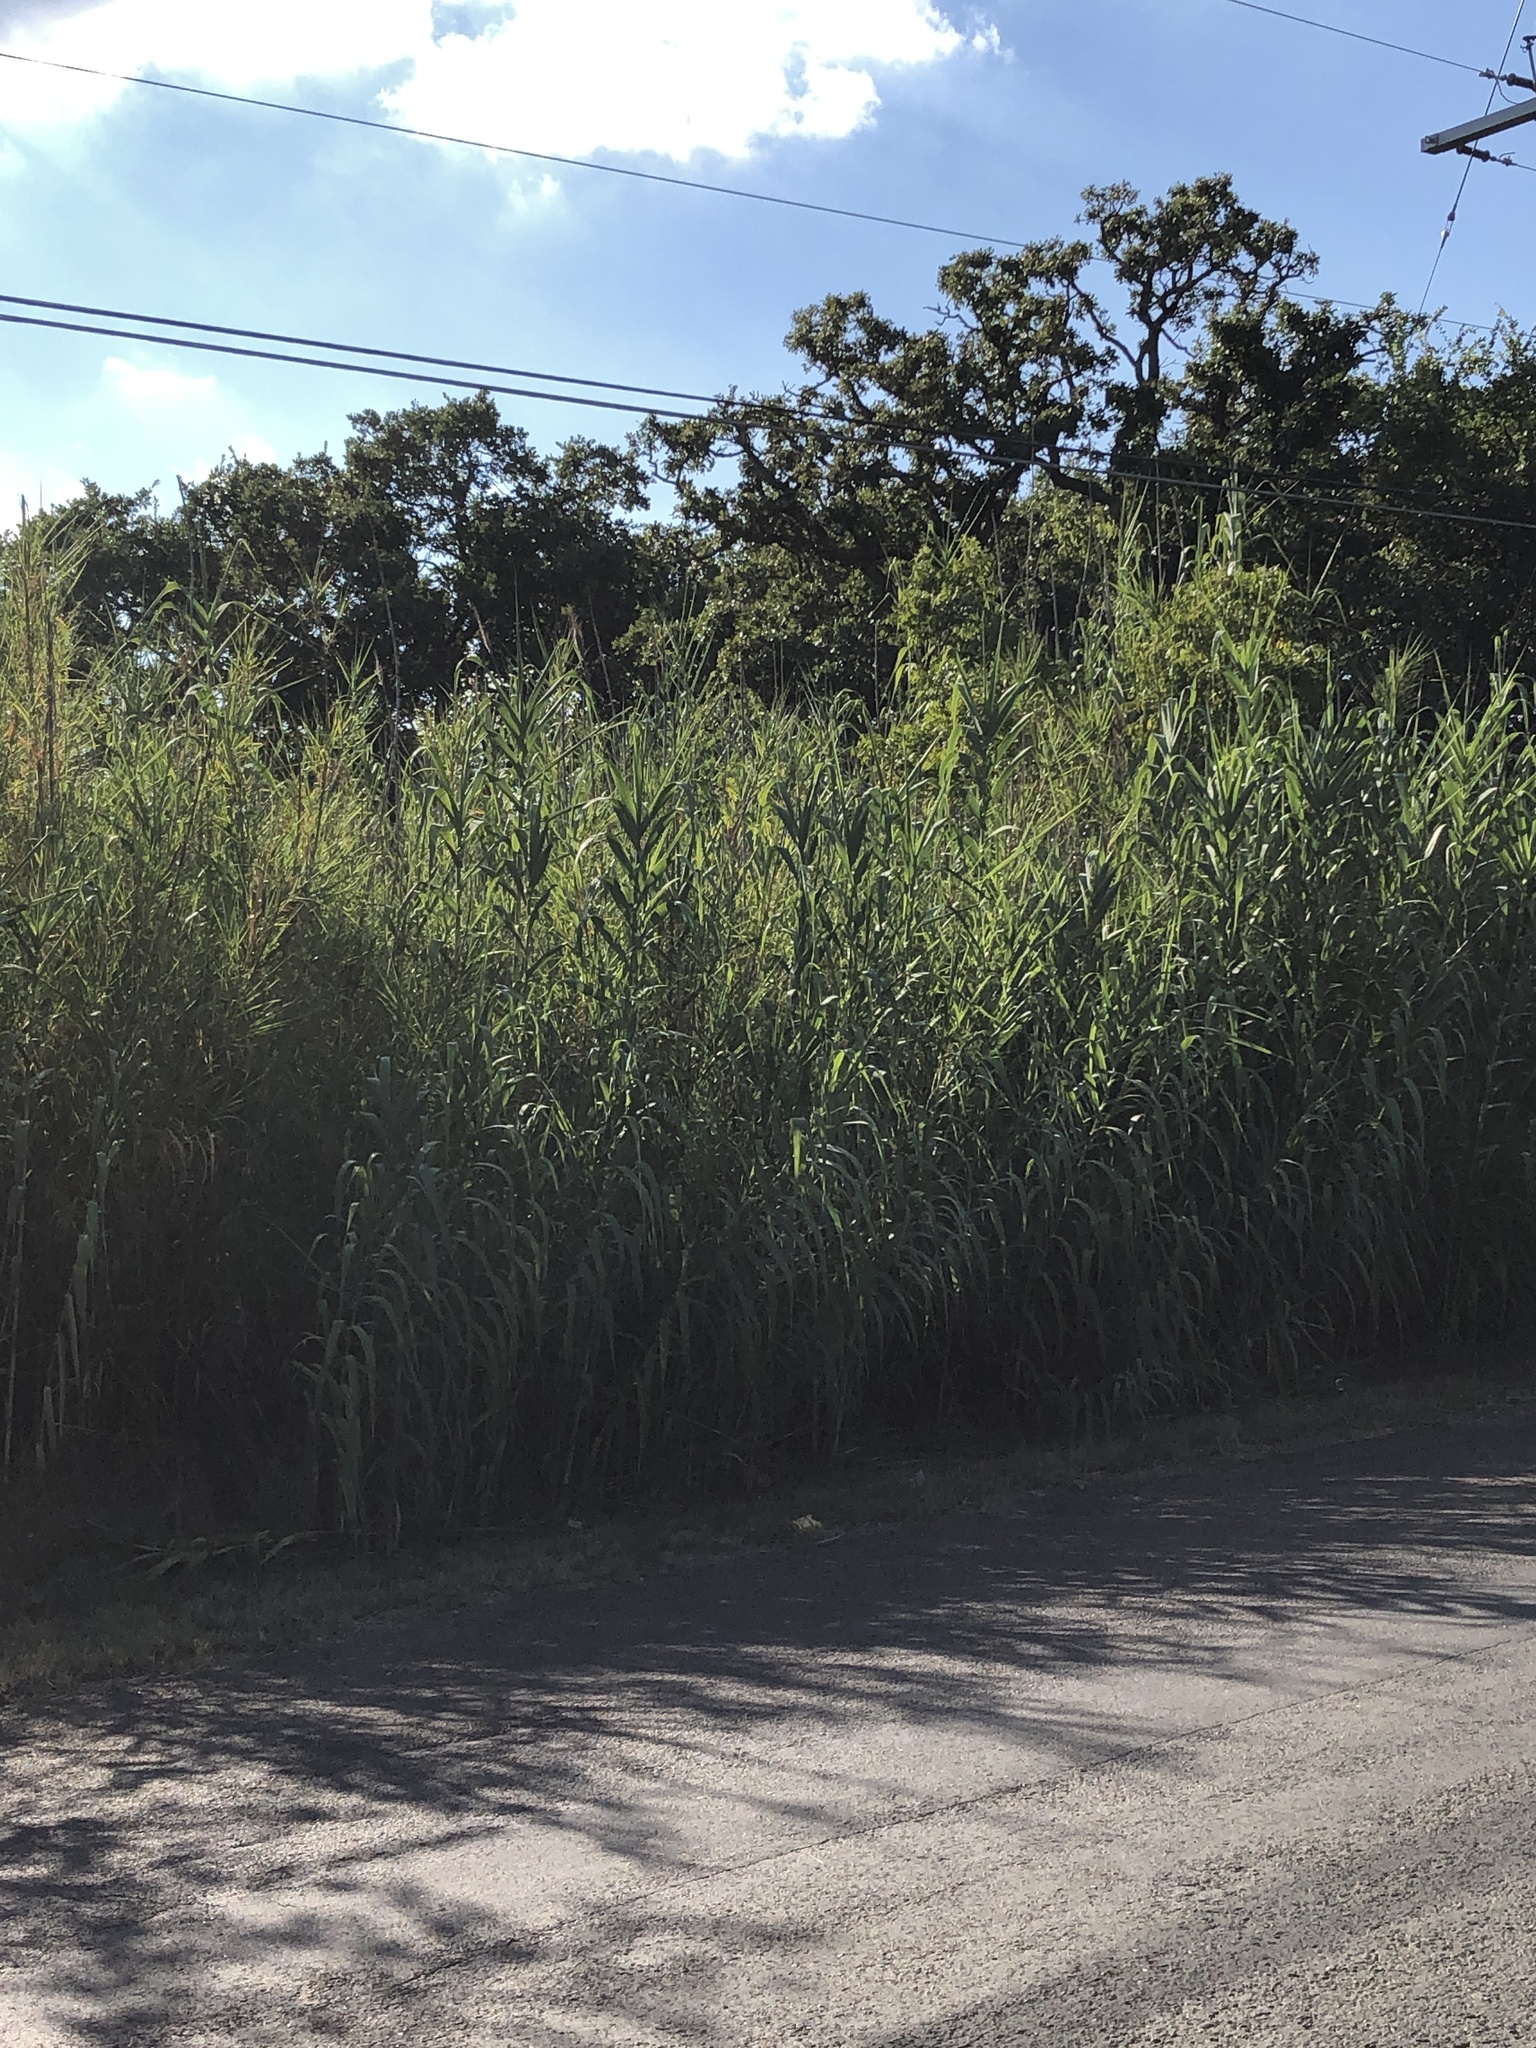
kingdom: Plantae
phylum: Tracheophyta
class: Liliopsida
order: Poales
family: Poaceae
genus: Arundo
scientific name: Arundo donax
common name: Giant reed
